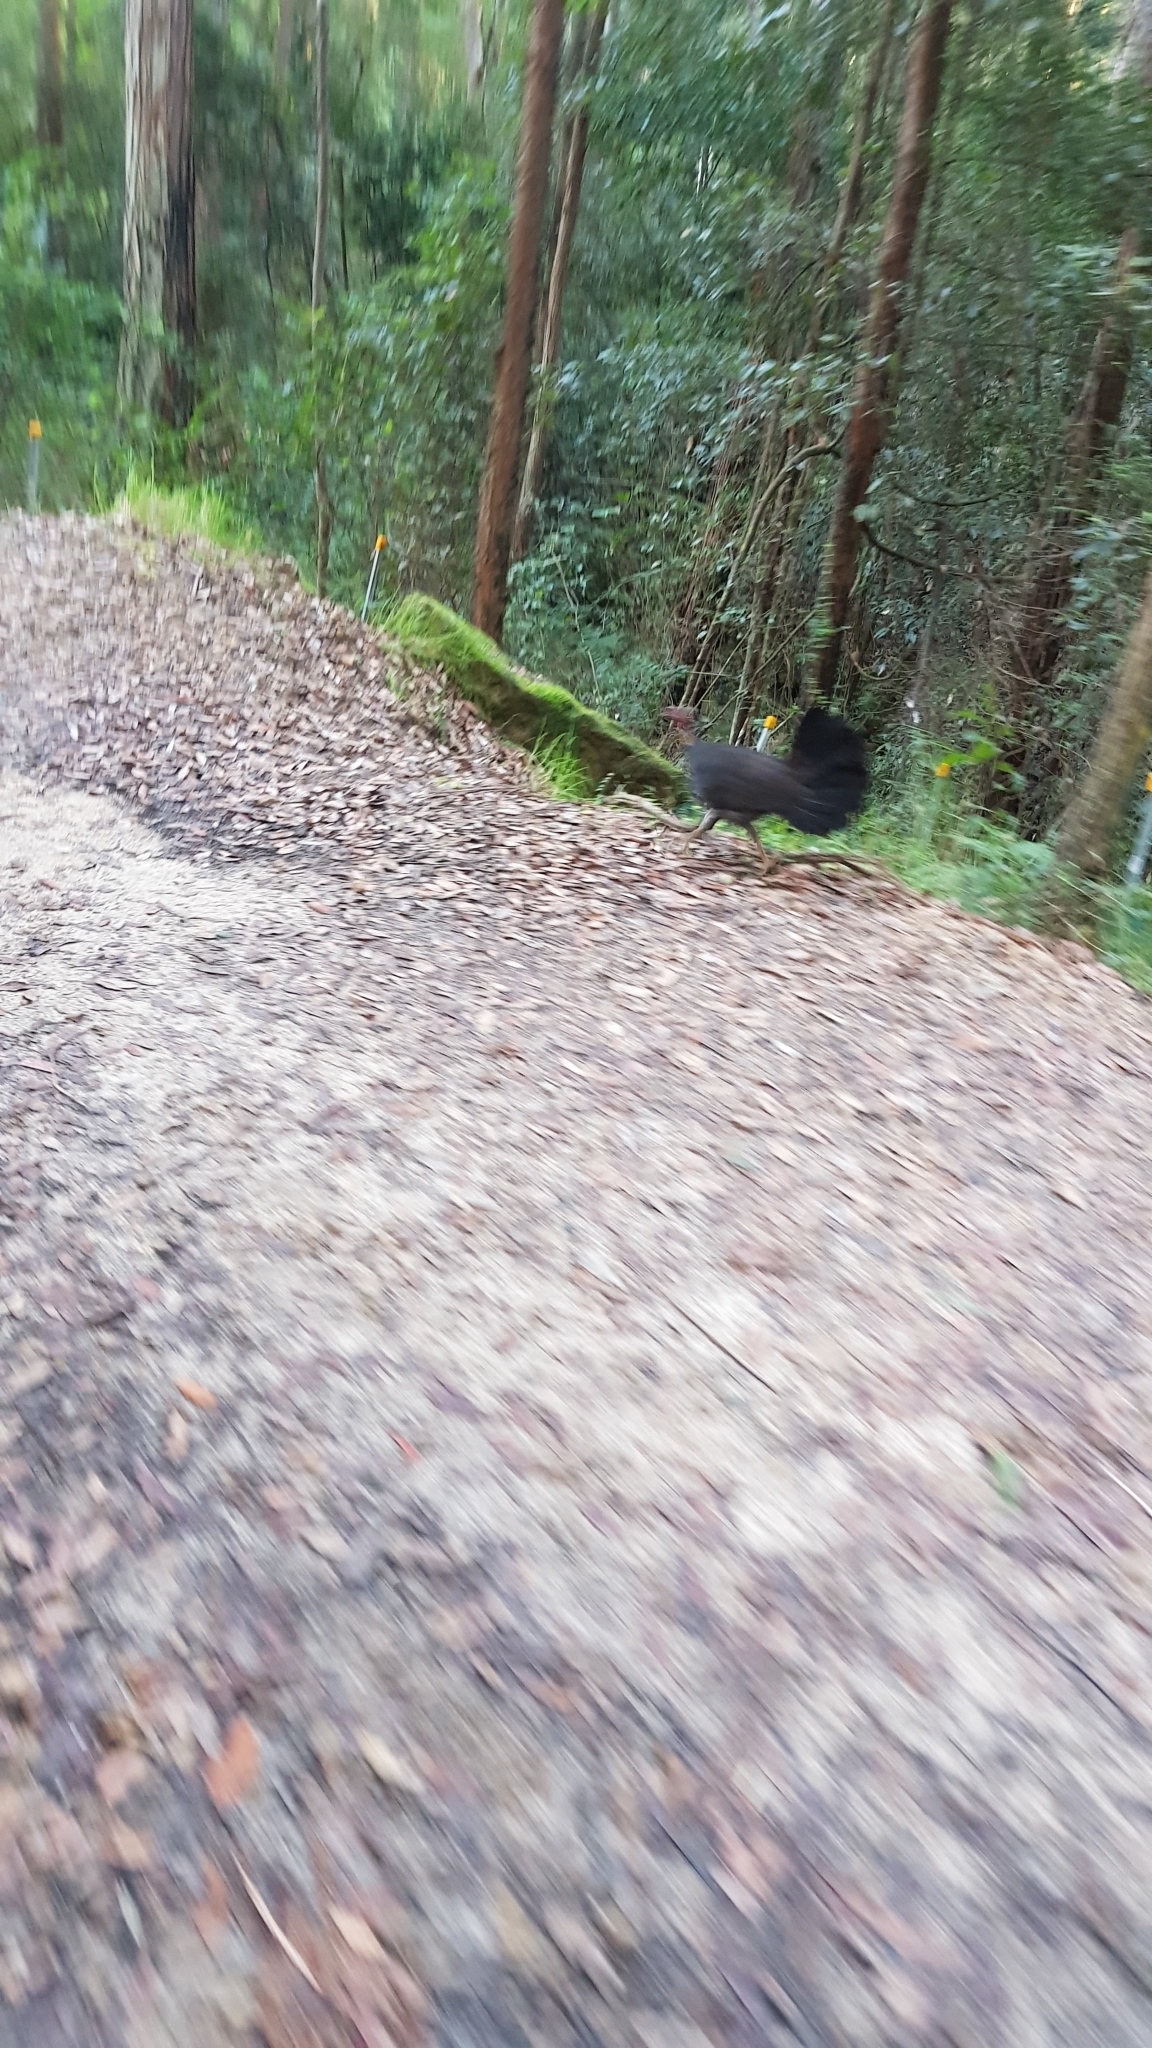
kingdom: Animalia
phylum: Chordata
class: Aves
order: Galliformes
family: Megapodiidae
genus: Alectura
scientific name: Alectura lathami
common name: Australian brushturkey
